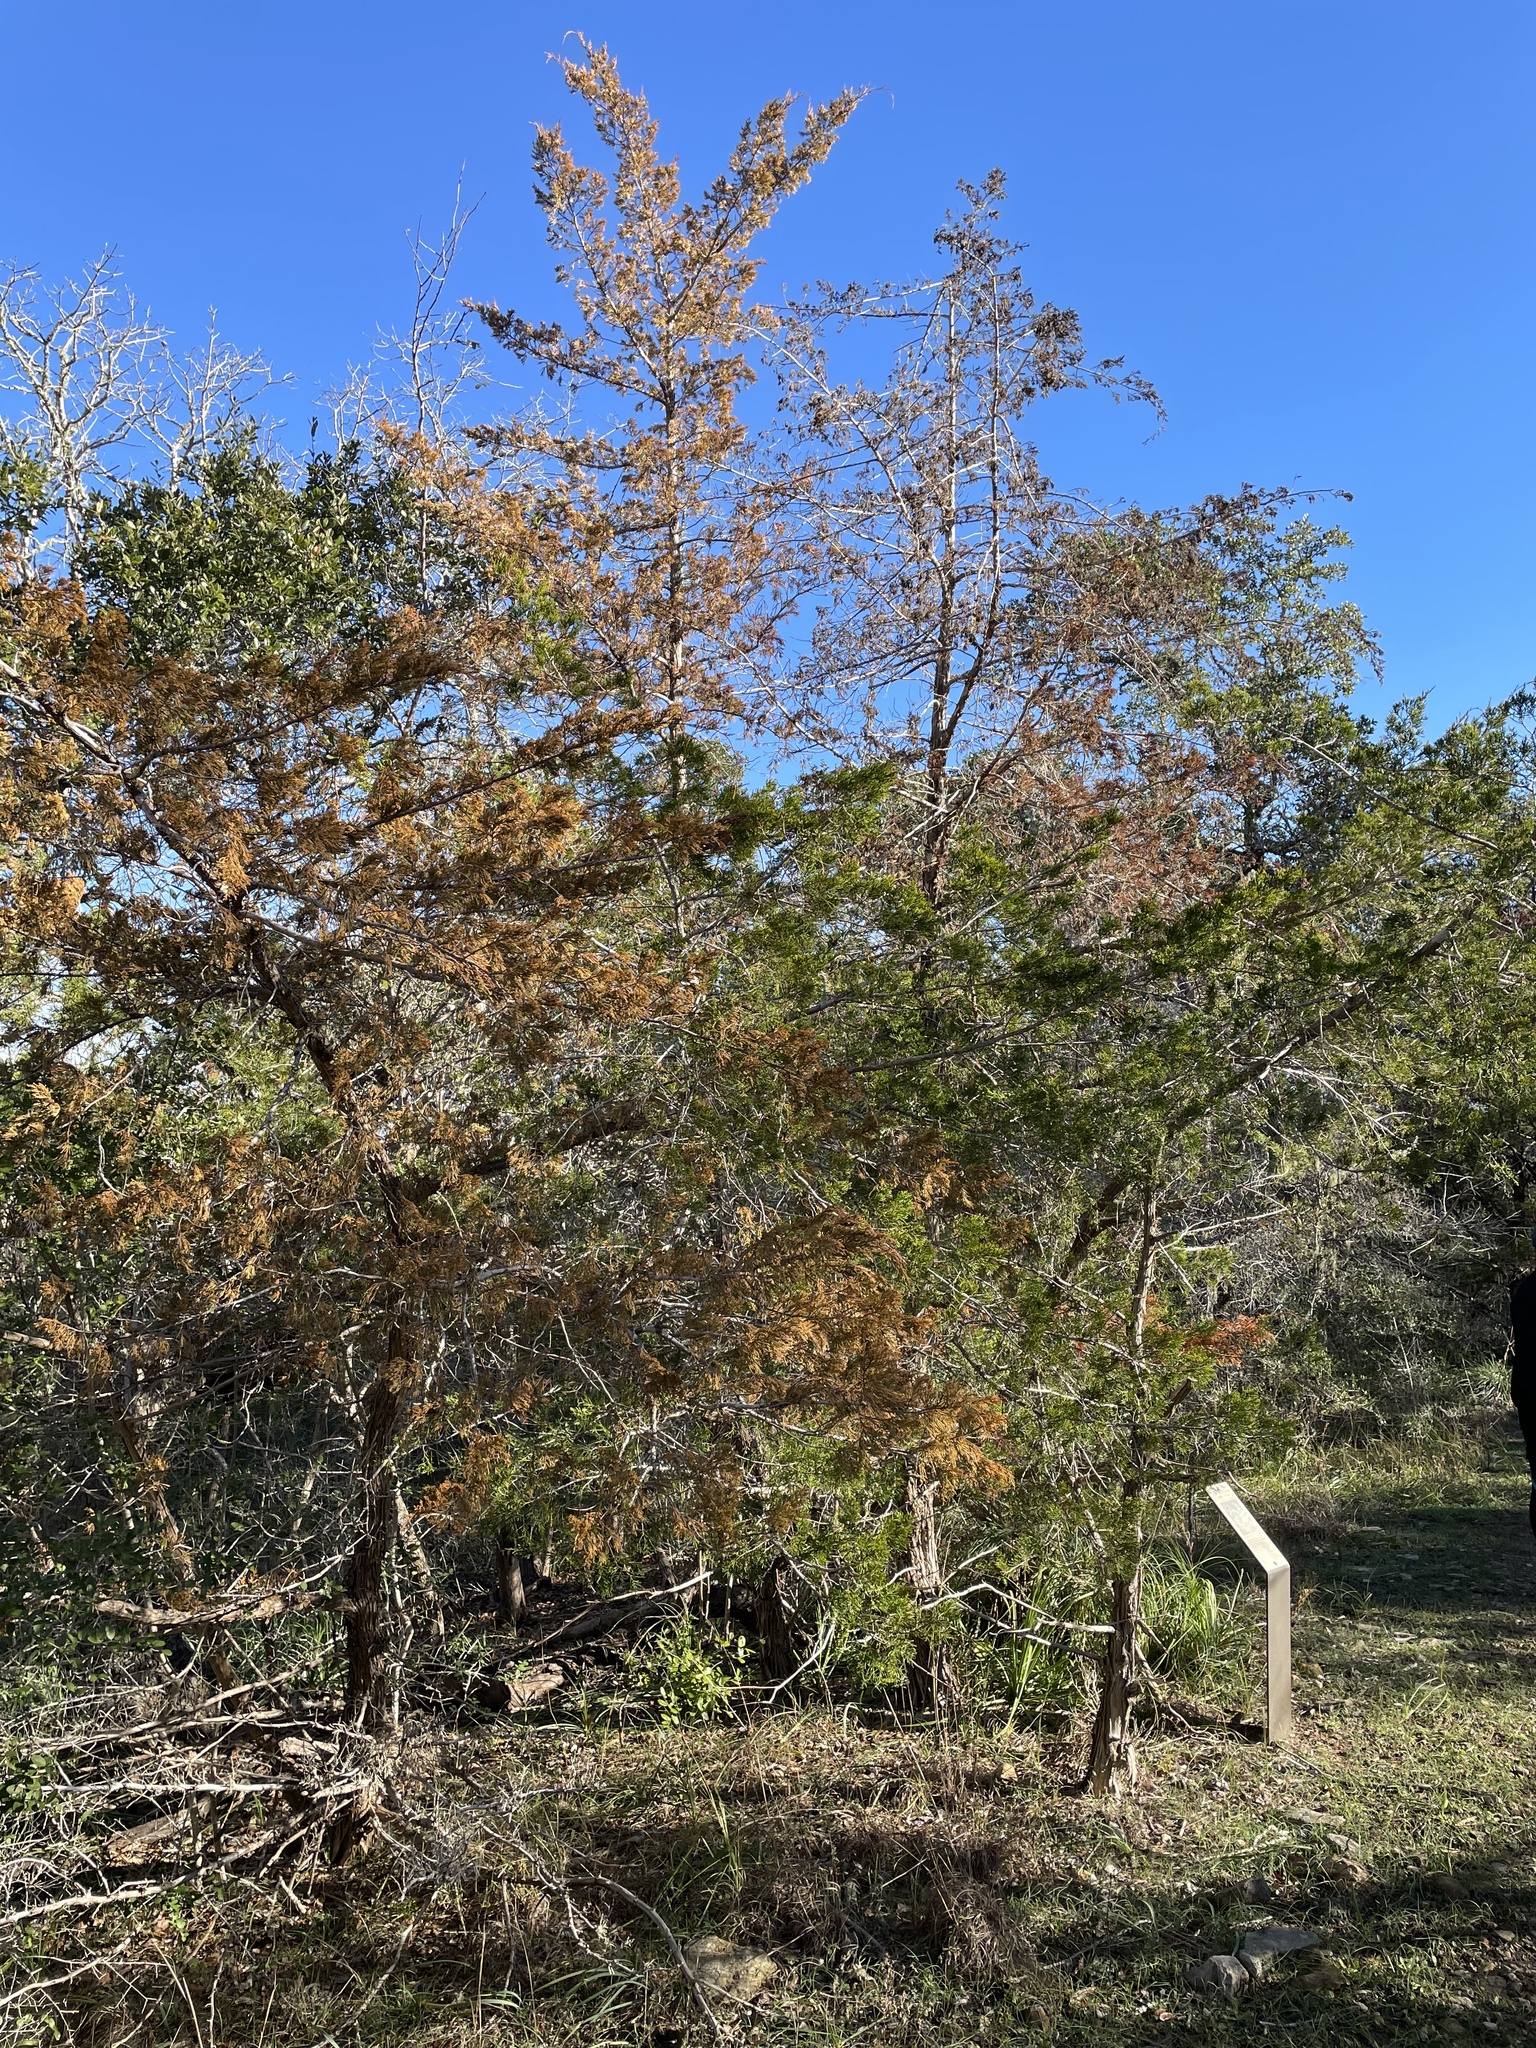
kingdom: Plantae
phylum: Tracheophyta
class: Pinopsida
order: Pinales
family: Cupressaceae
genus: Juniperus
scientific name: Juniperus virginiana
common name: Red juniper
